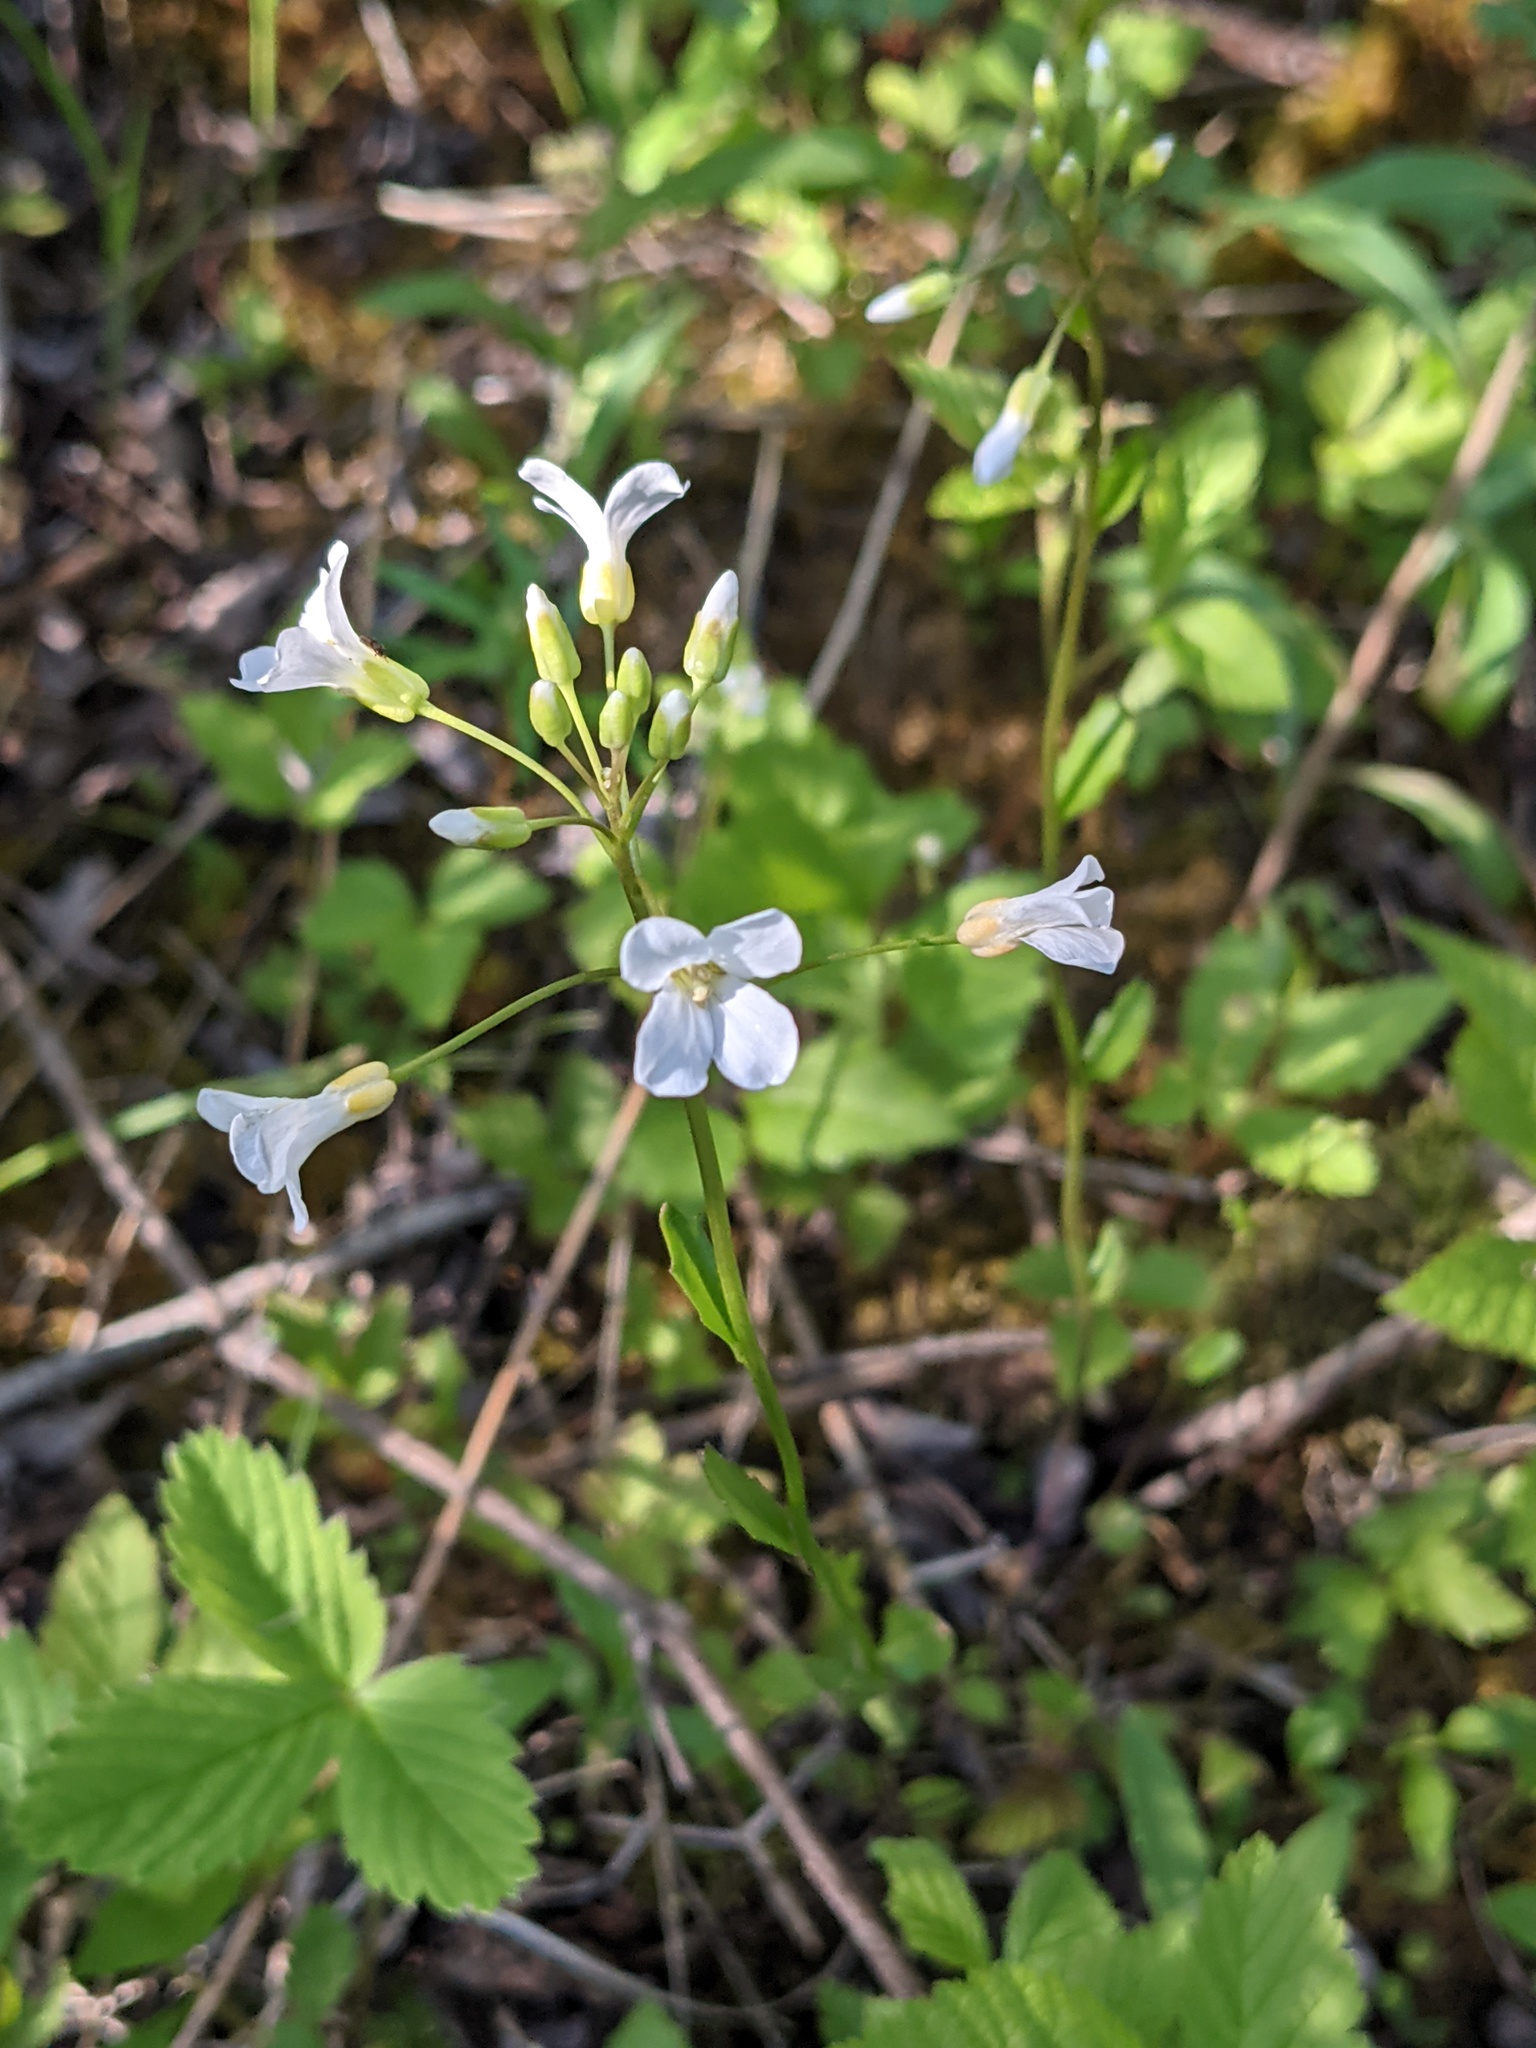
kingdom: Plantae
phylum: Tracheophyta
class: Magnoliopsida
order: Brassicales
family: Brassicaceae
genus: Cardamine
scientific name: Cardamine bulbosa
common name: Spring cress
